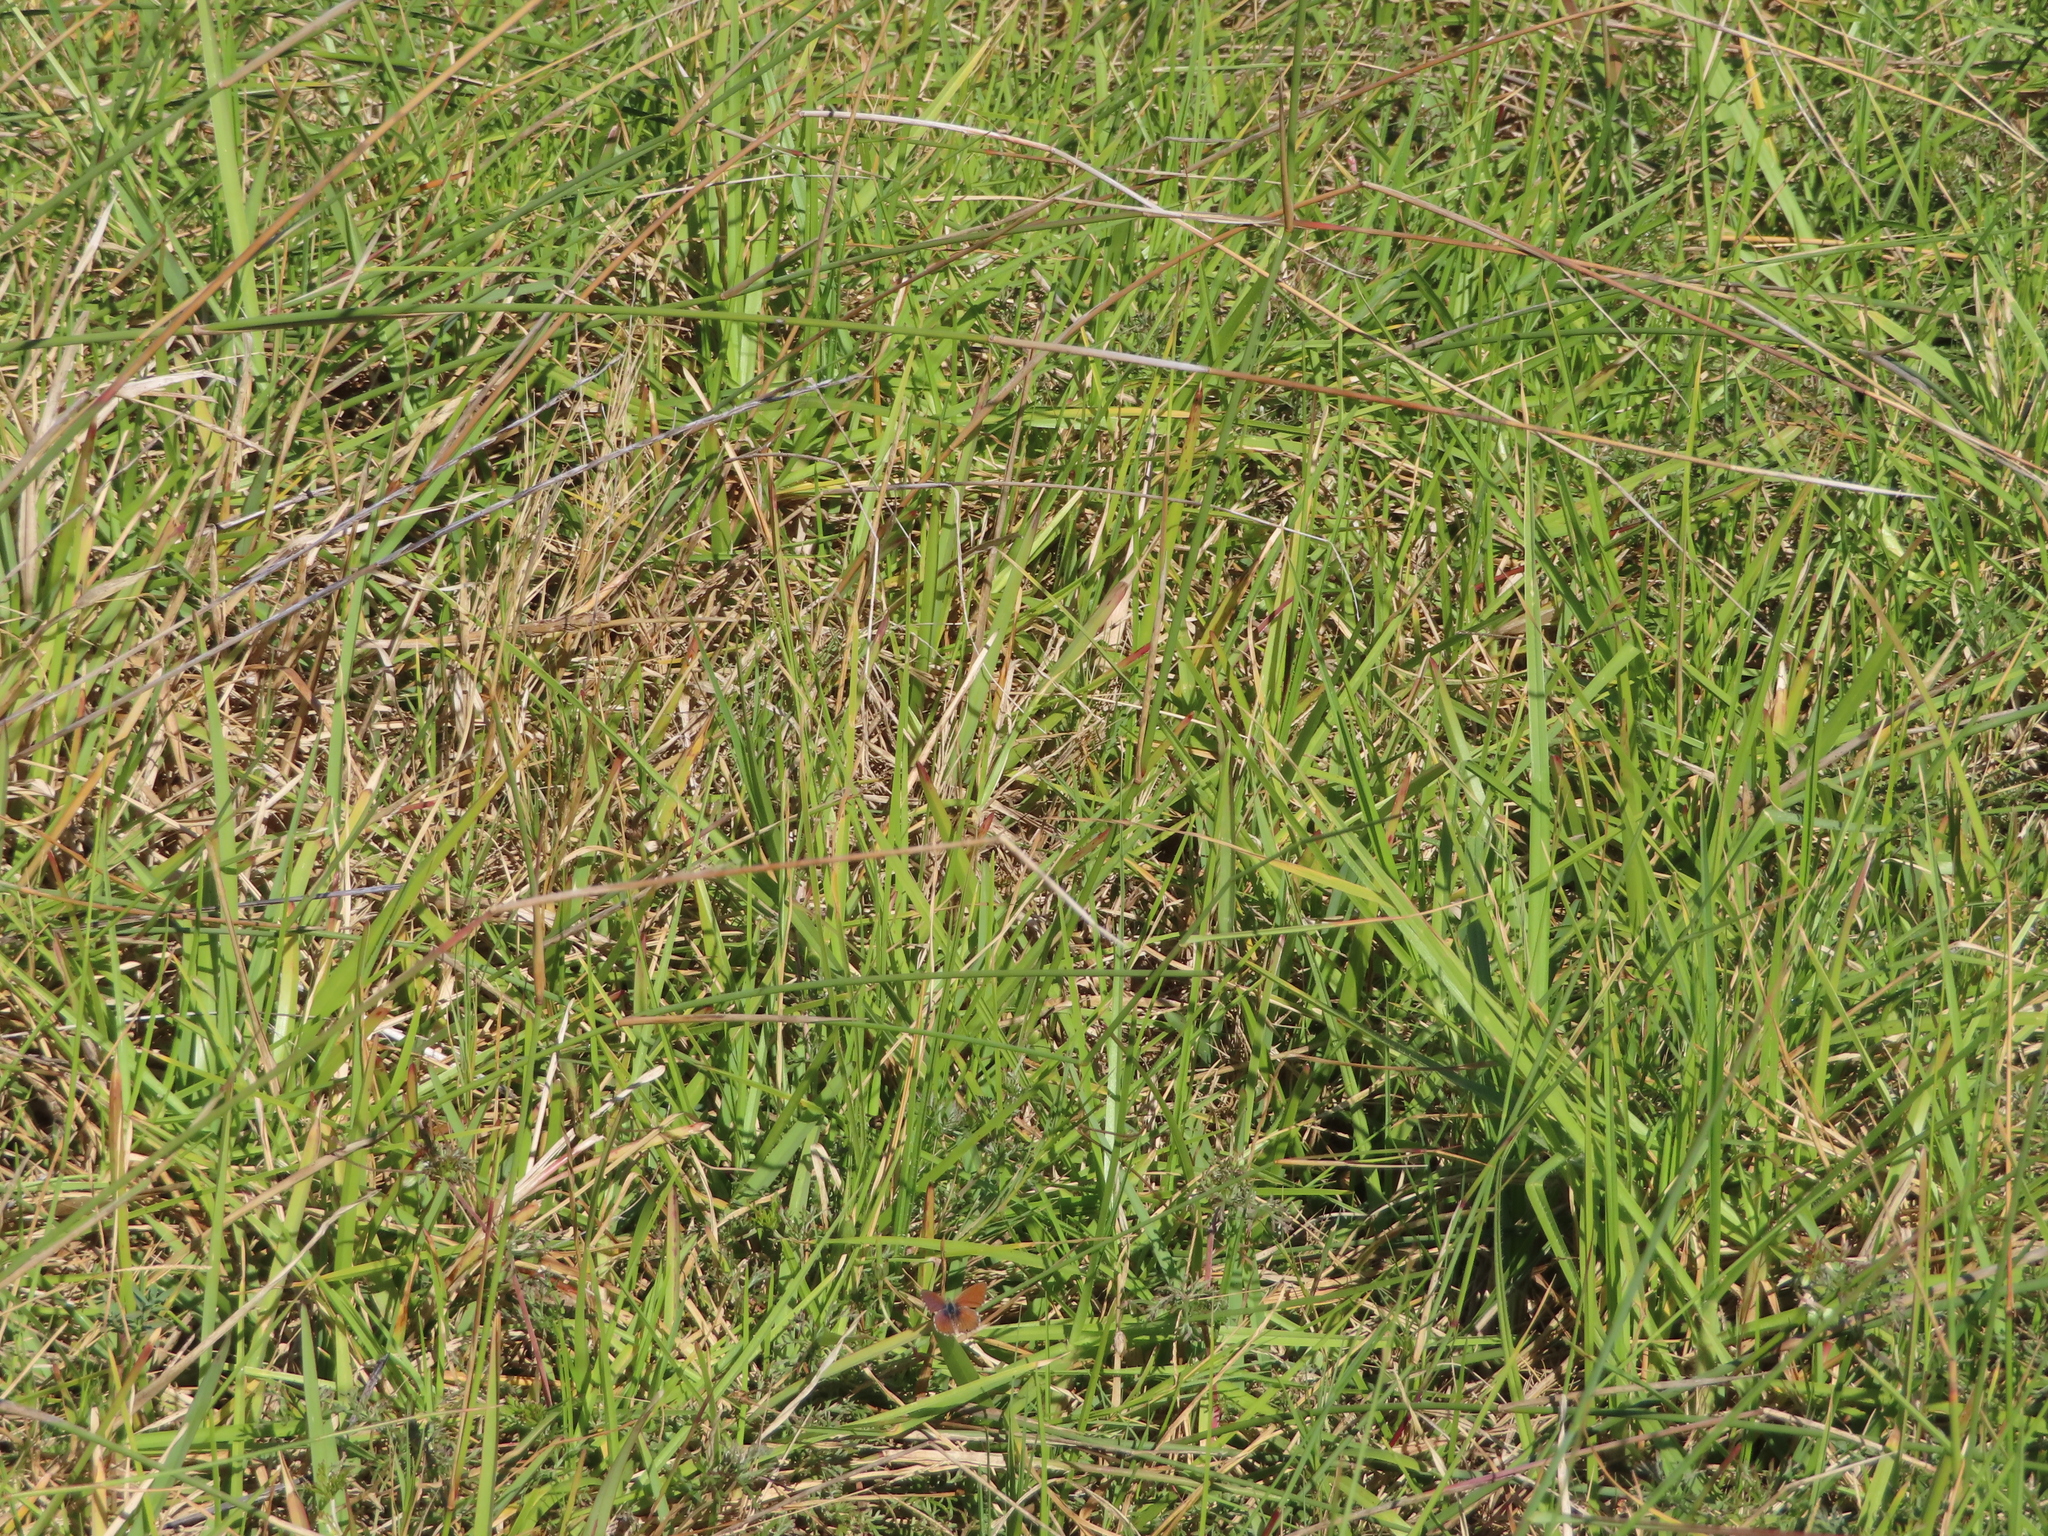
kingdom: Animalia
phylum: Arthropoda
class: Insecta
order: Lepidoptera
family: Lycaenidae
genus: Cacyreus
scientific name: Cacyreus fracta
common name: Water bronze
